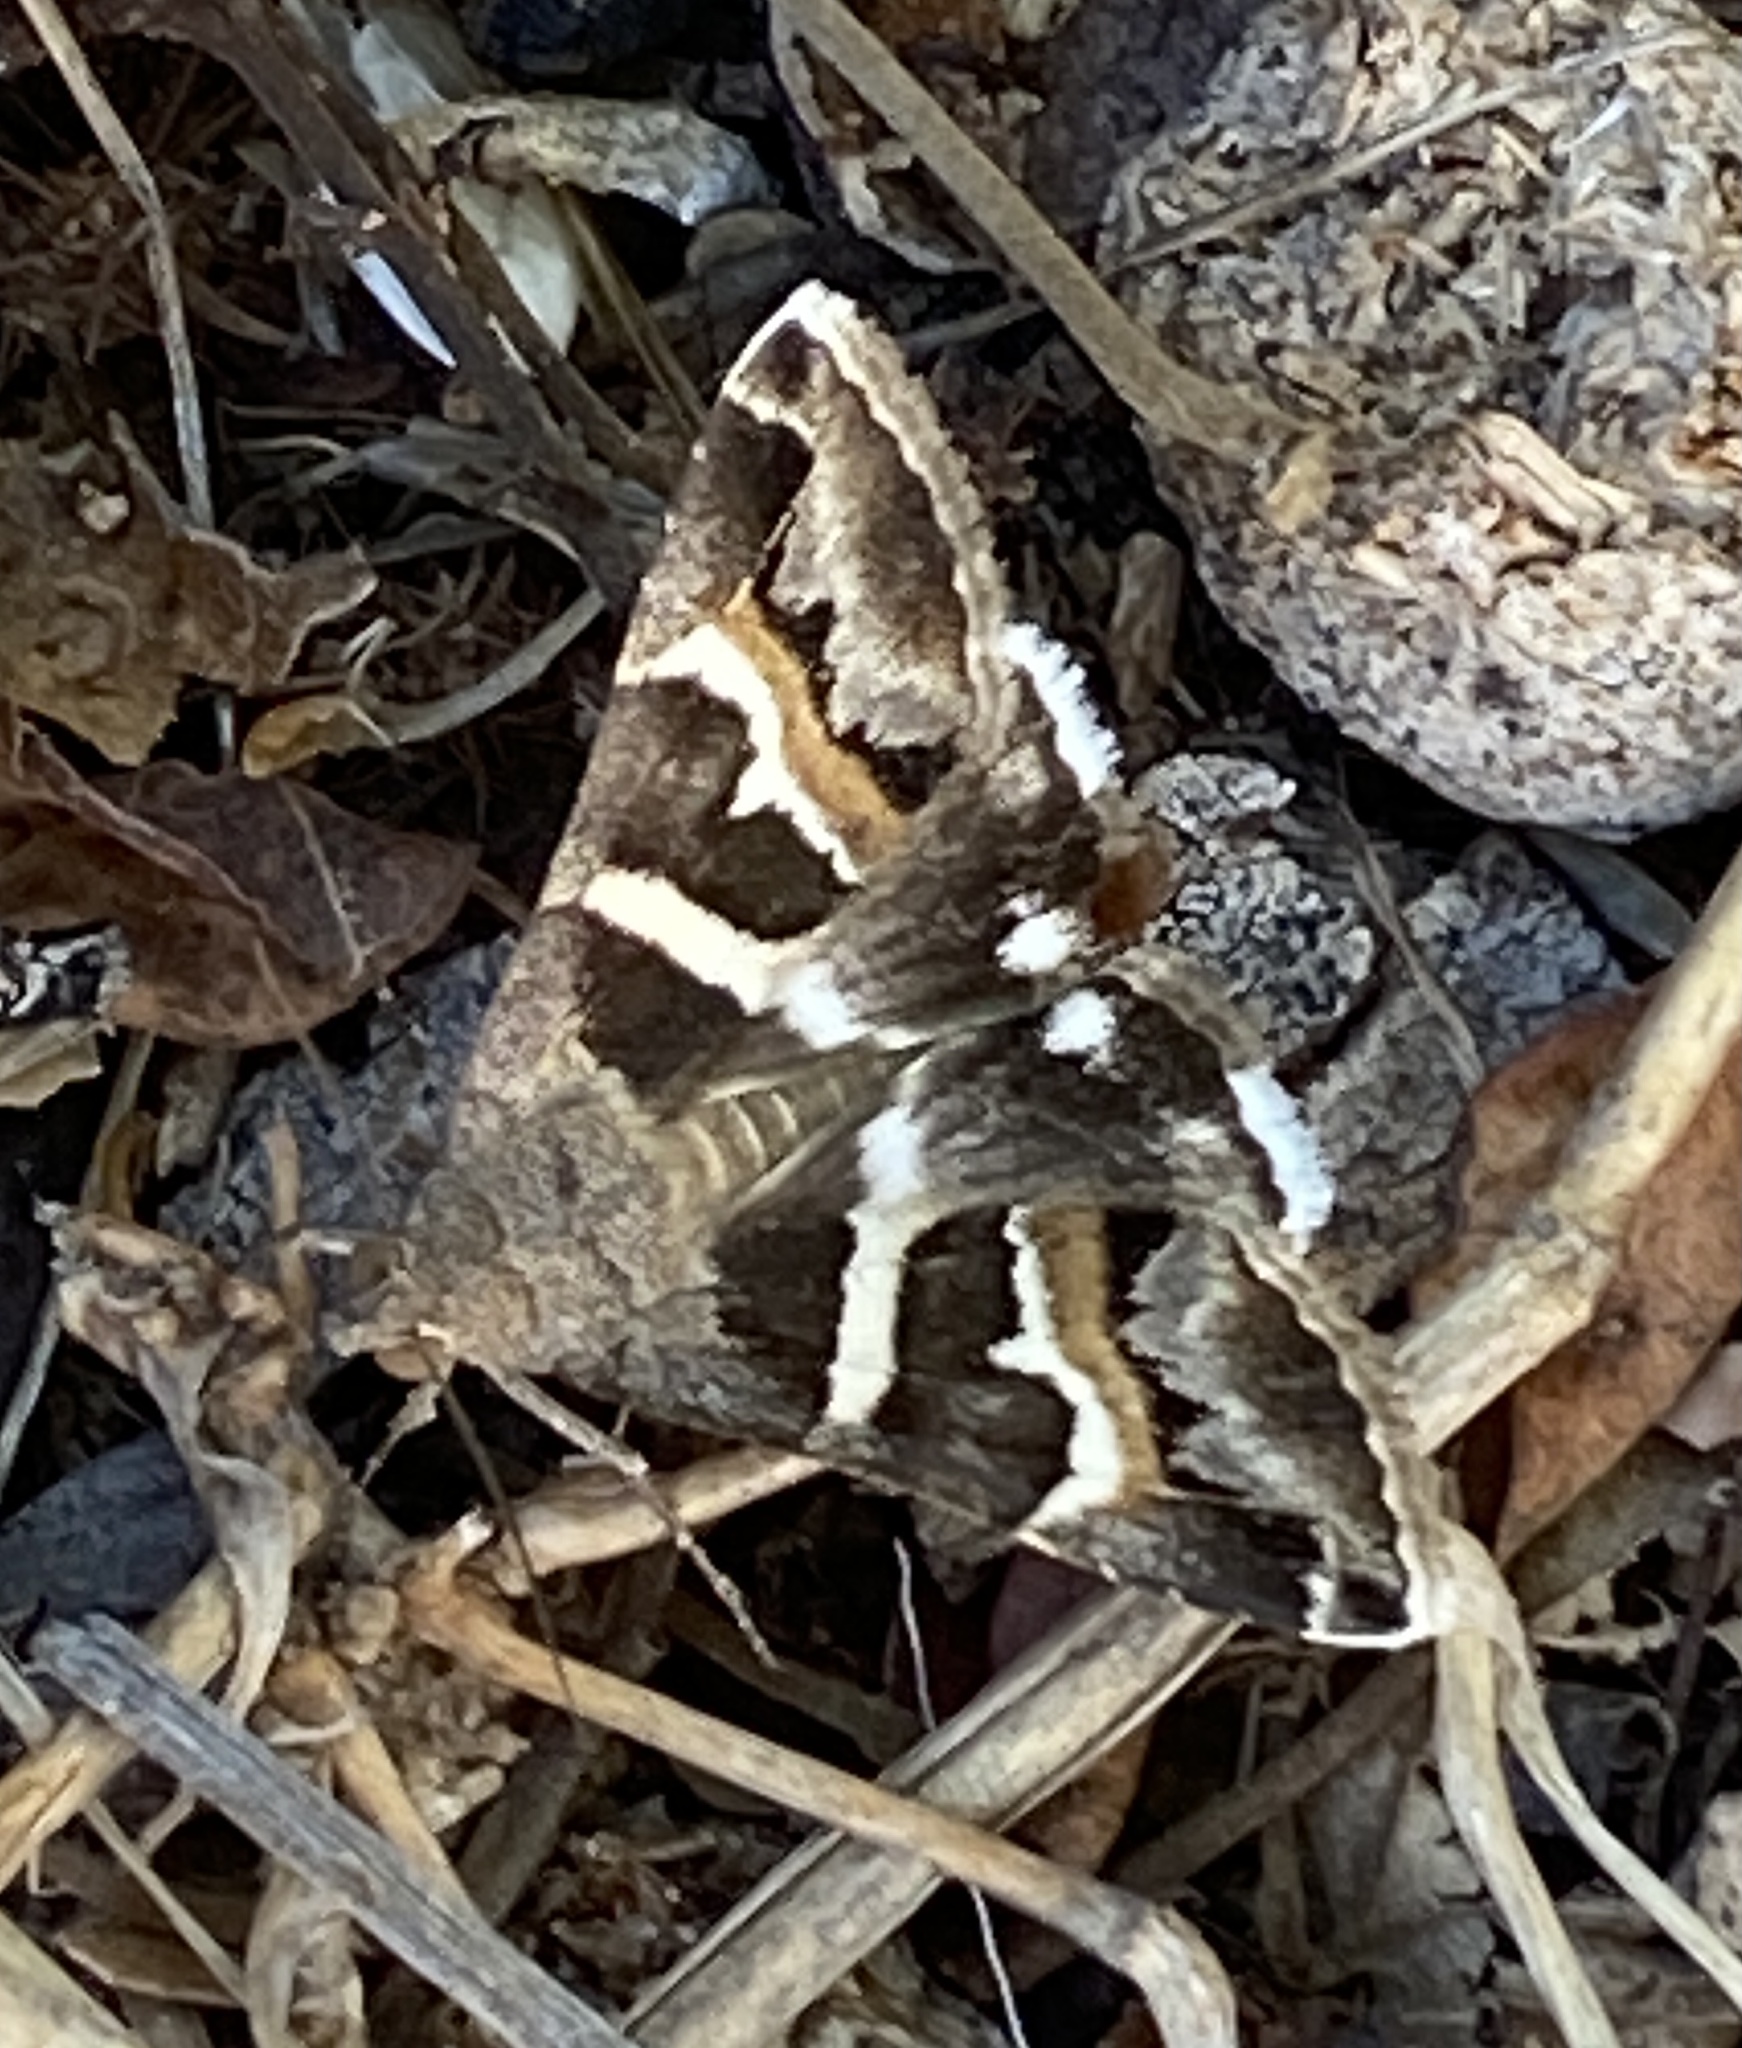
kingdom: Animalia
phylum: Arthropoda
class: Insecta
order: Lepidoptera
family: Erebidae
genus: Grammodes
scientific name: Grammodes stolida
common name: Geometrician
